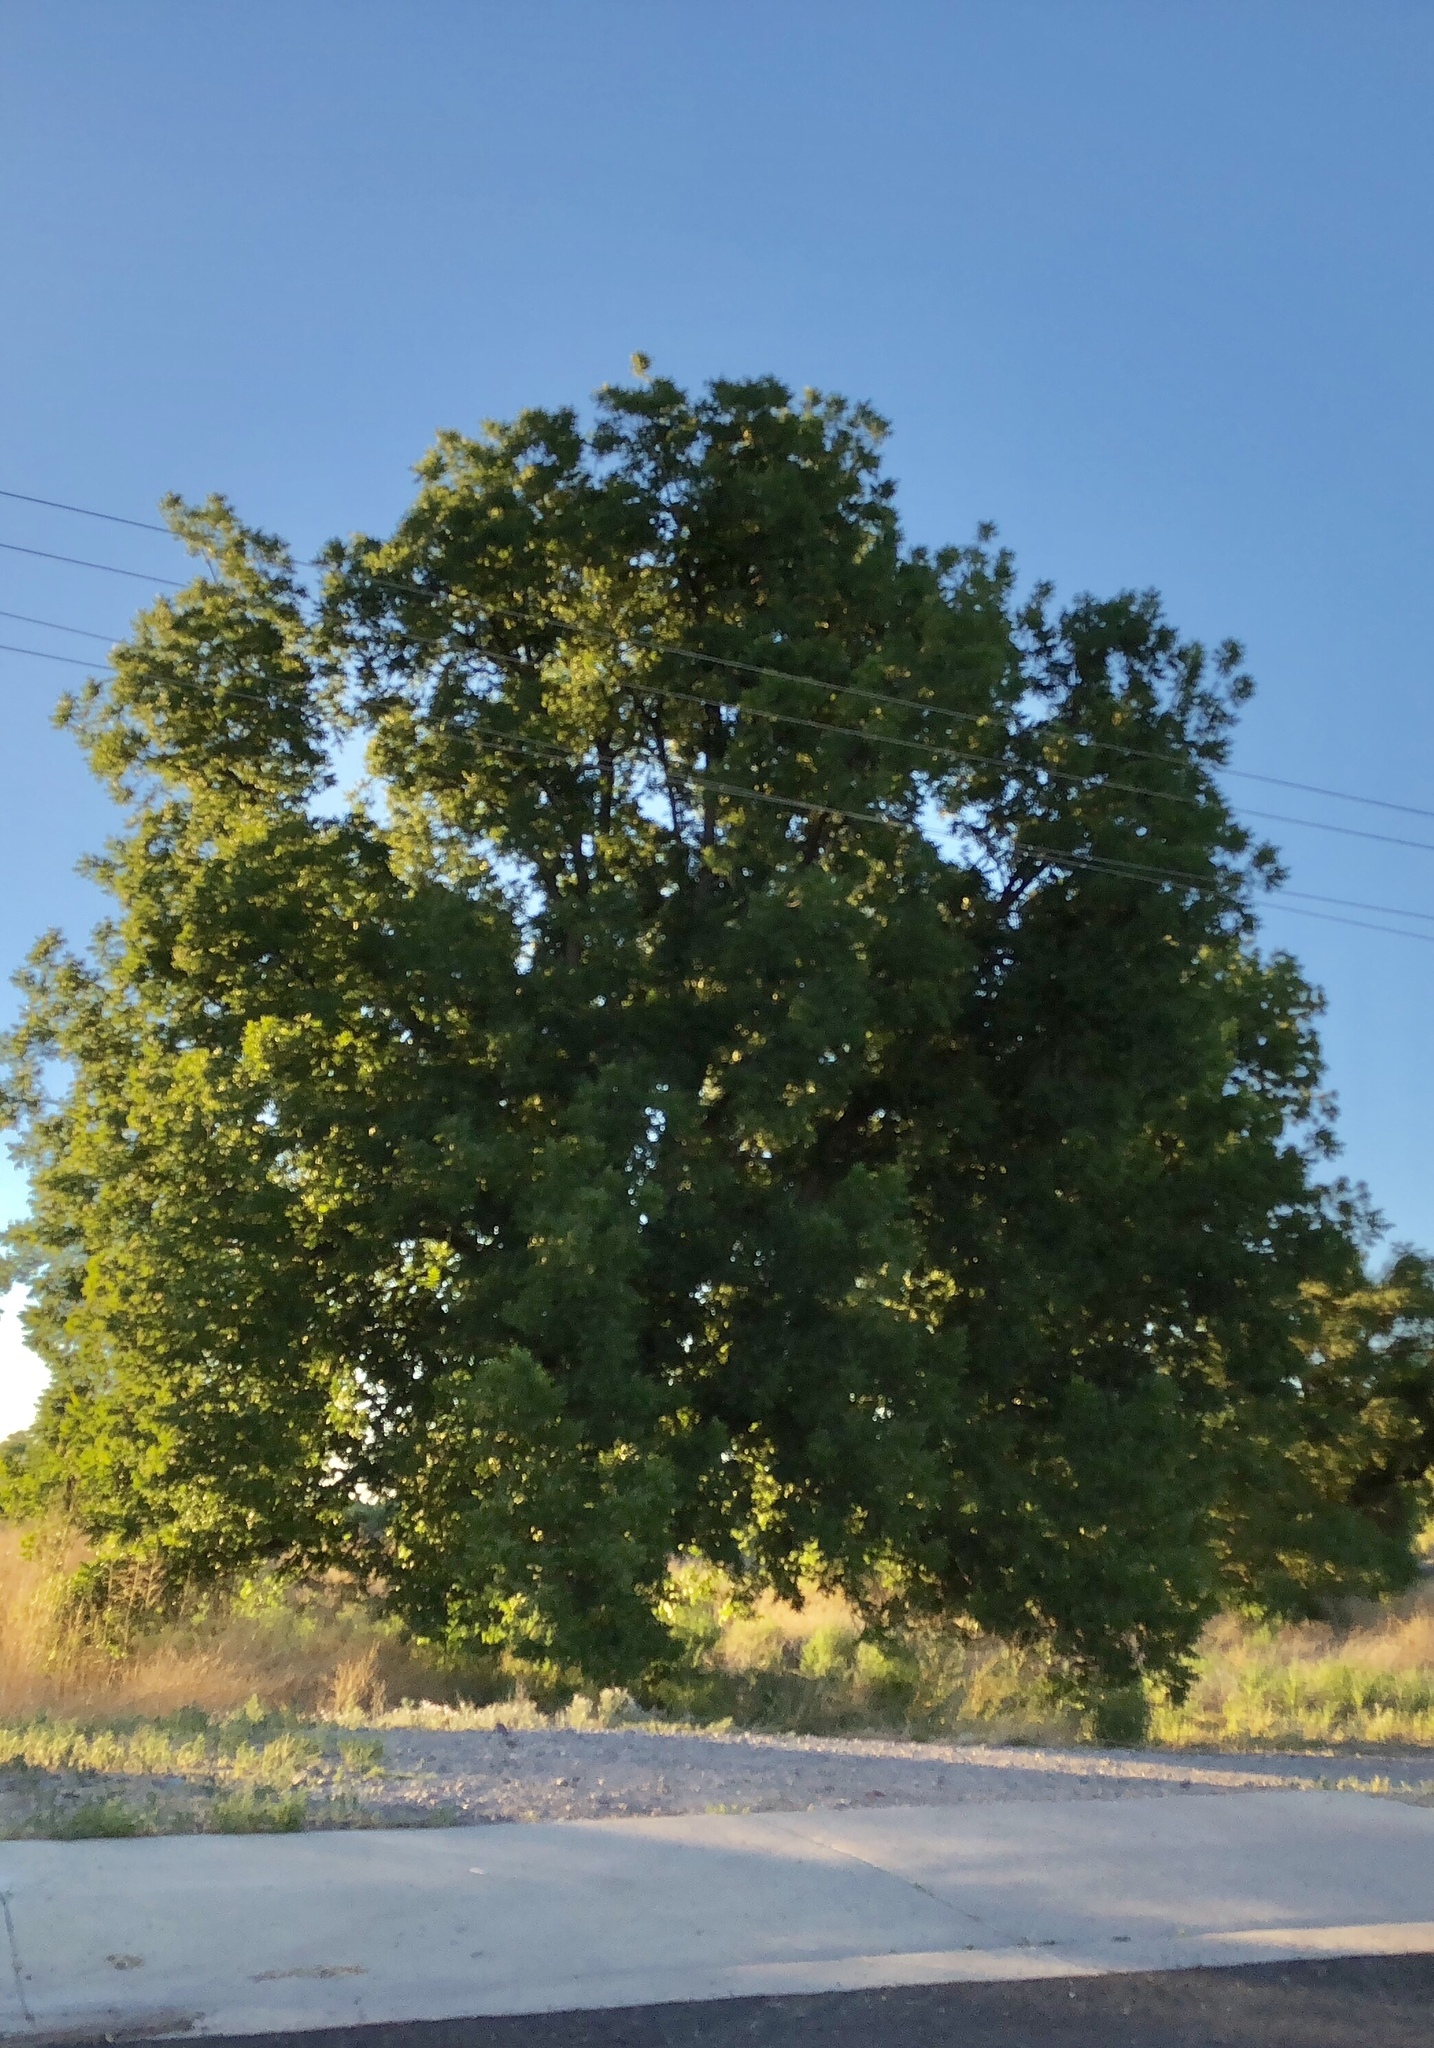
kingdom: Plantae
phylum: Tracheophyta
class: Magnoliopsida
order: Proteales
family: Platanaceae
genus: Platanus
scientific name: Platanus wrightii
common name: Arizona sycamore
